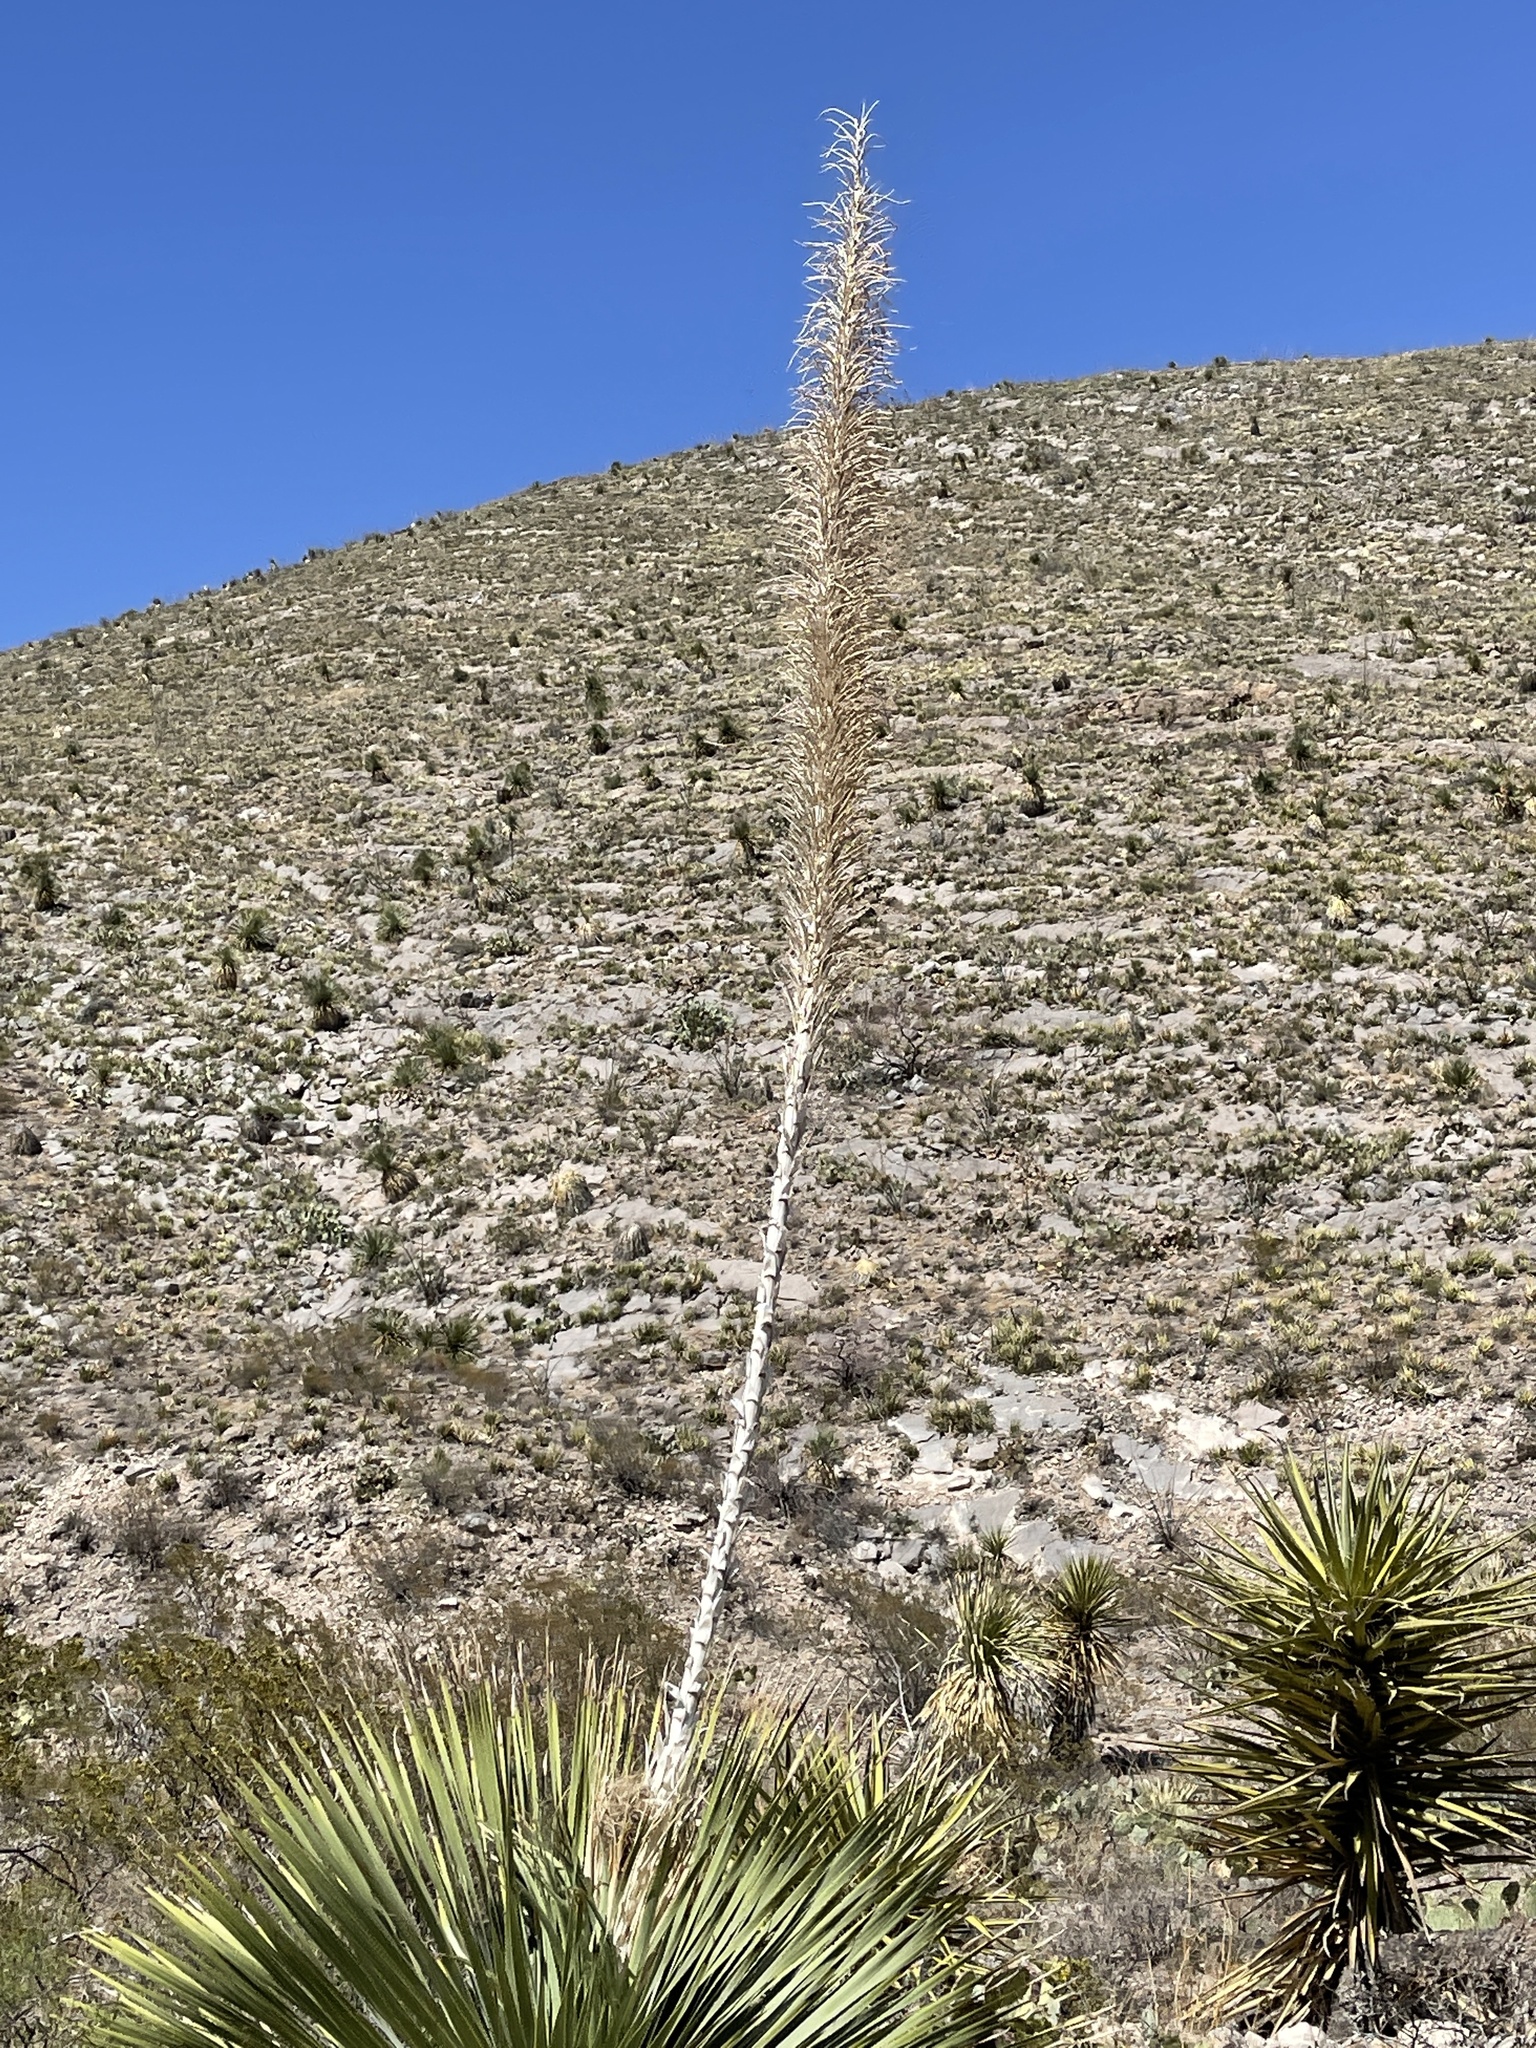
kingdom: Plantae
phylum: Tracheophyta
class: Liliopsida
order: Asparagales
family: Asparagaceae
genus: Dasylirion
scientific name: Dasylirion wheeleri
